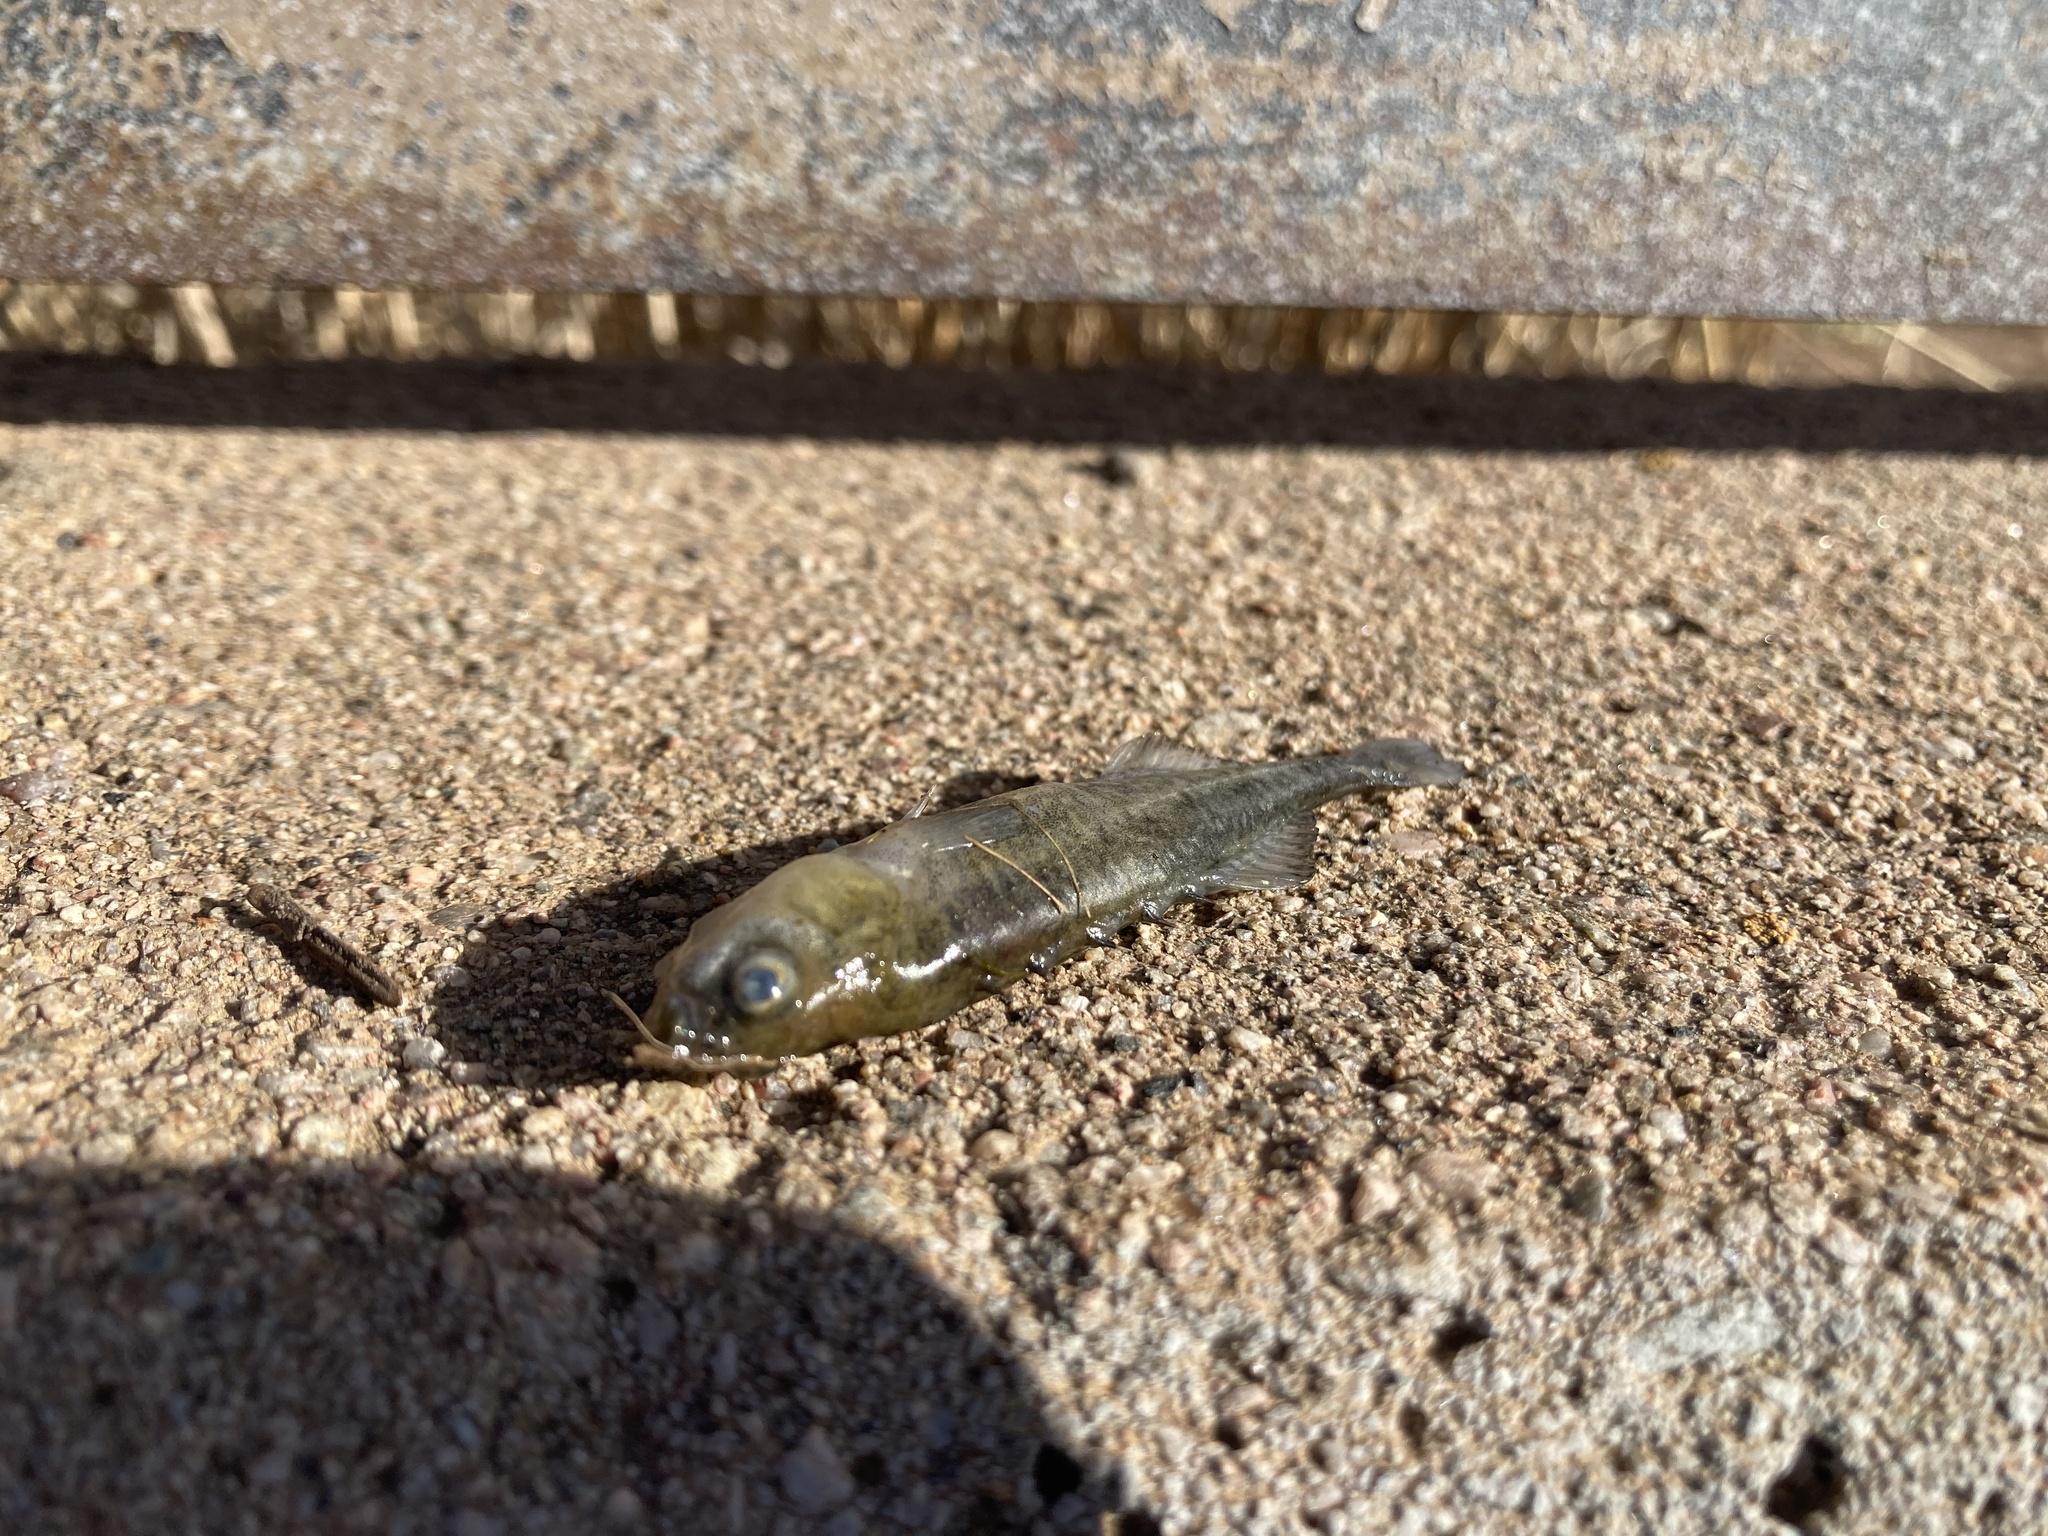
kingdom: Animalia
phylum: Chordata
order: Gasterosteiformes
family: Gasterosteidae
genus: Culaea
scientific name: Culaea inconstans
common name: Brook stickleback
